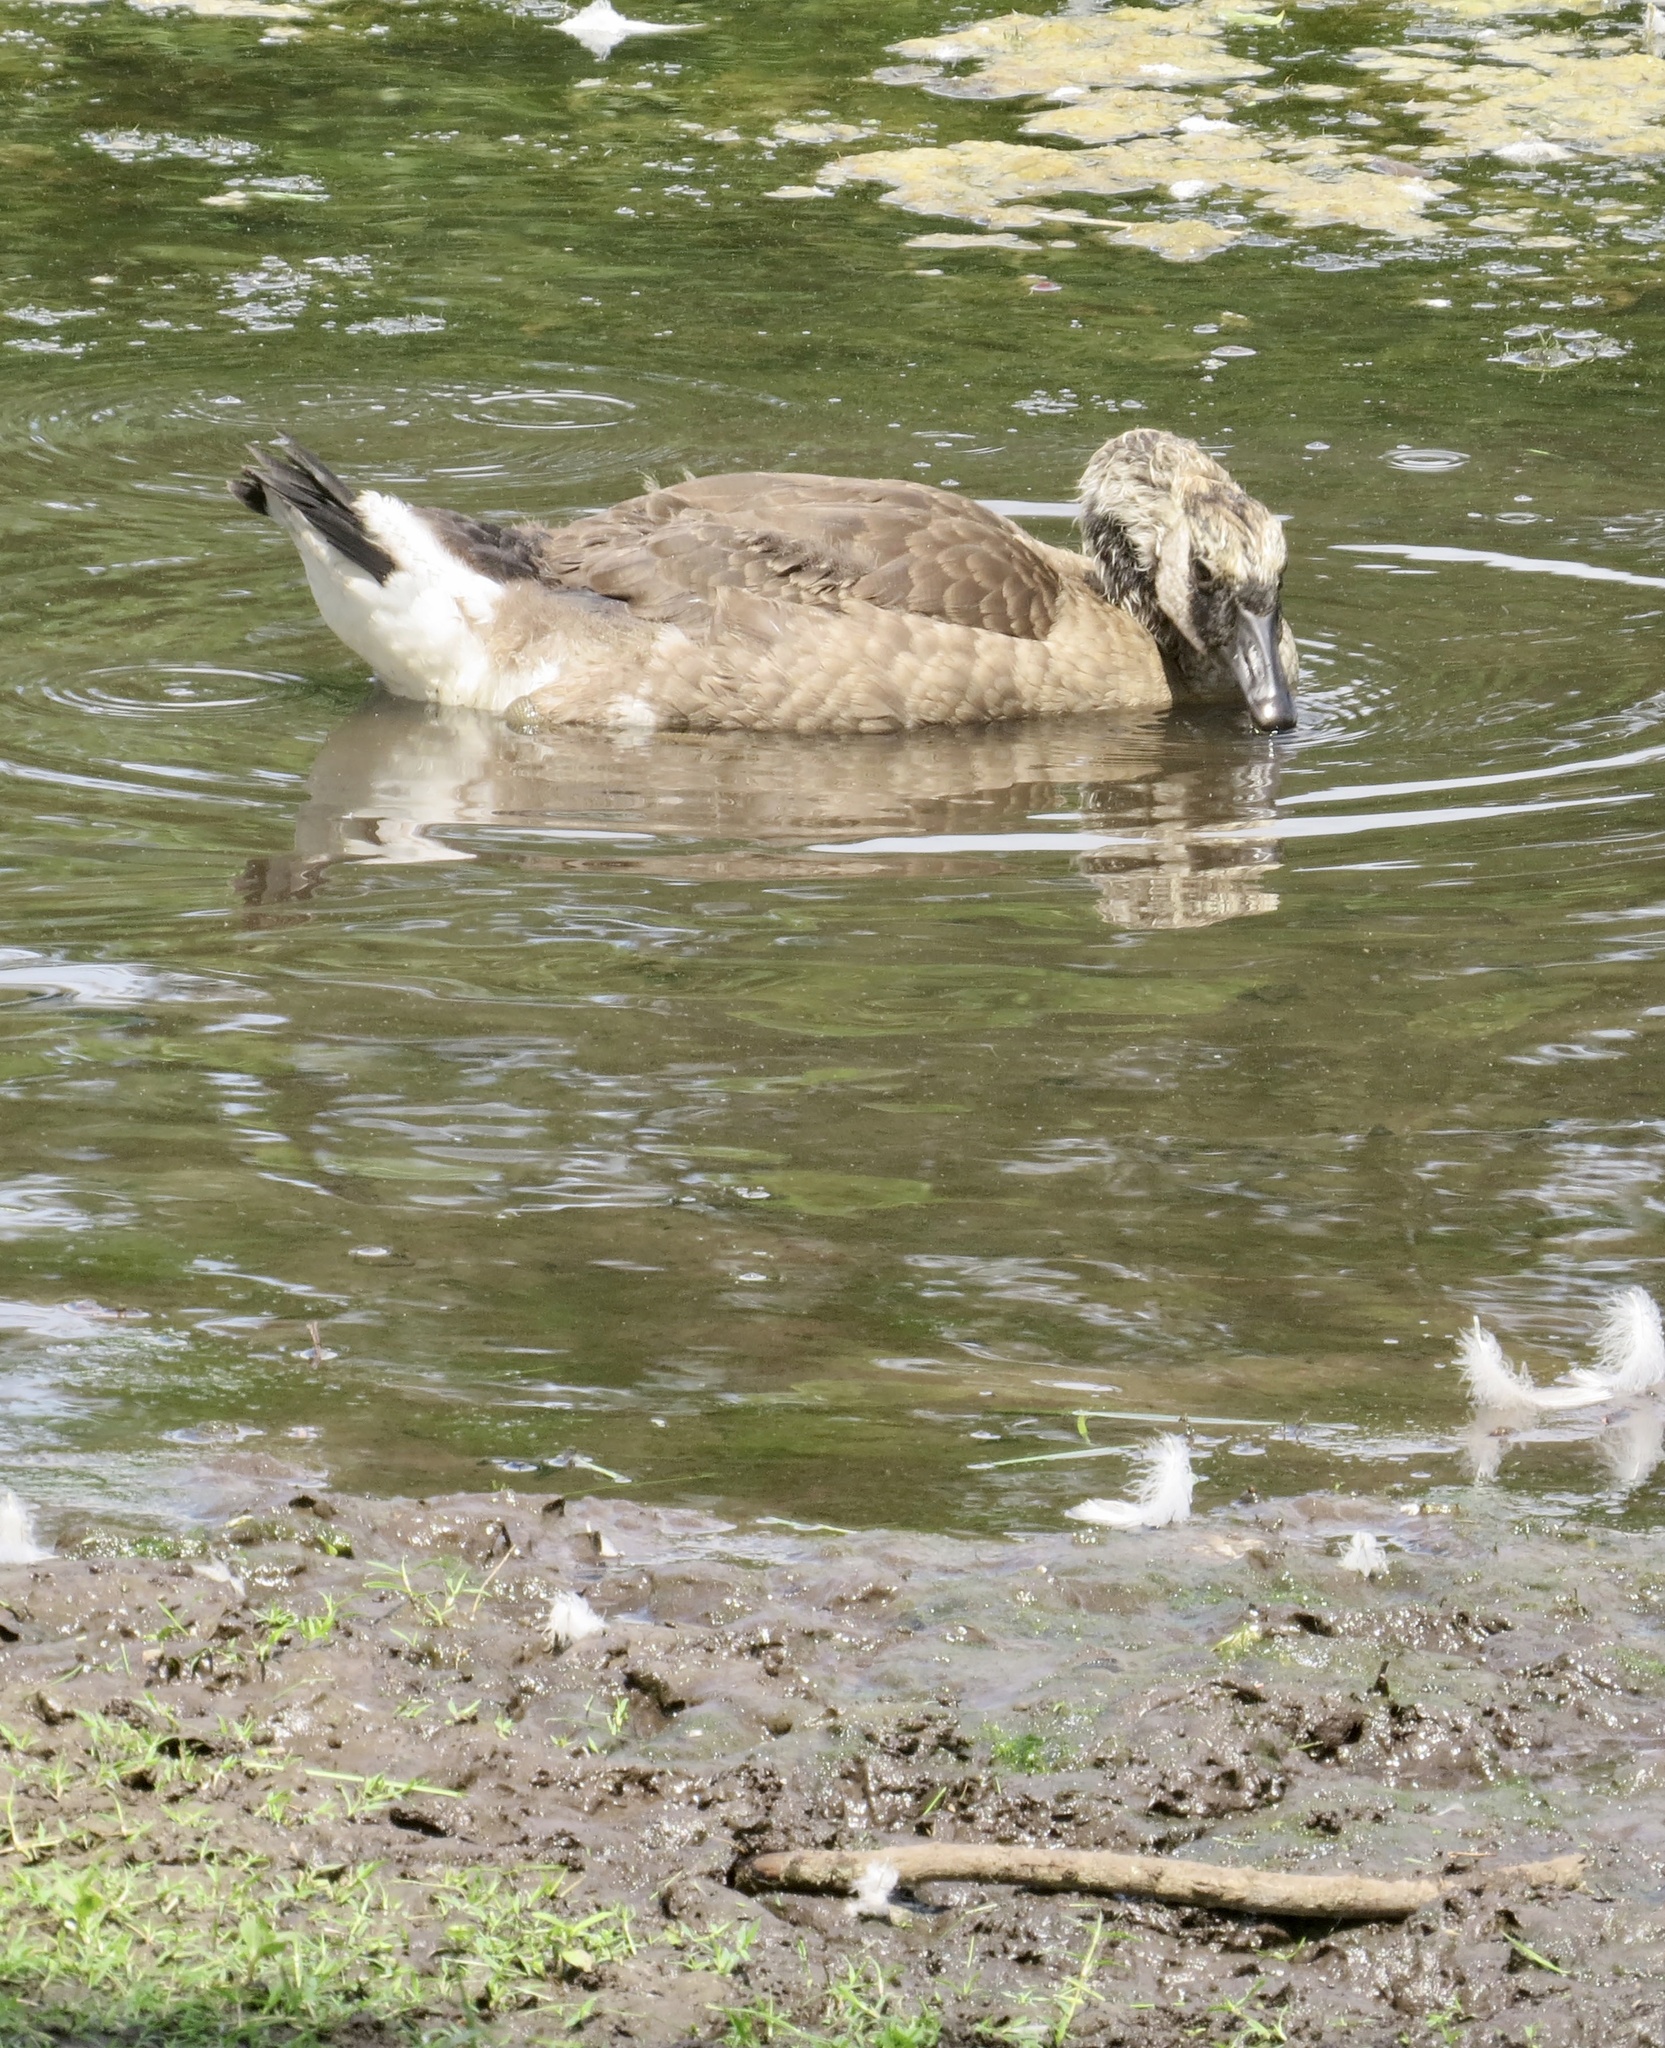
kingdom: Animalia
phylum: Chordata
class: Aves
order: Anseriformes
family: Anatidae
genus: Branta
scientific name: Branta canadensis
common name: Canada goose
